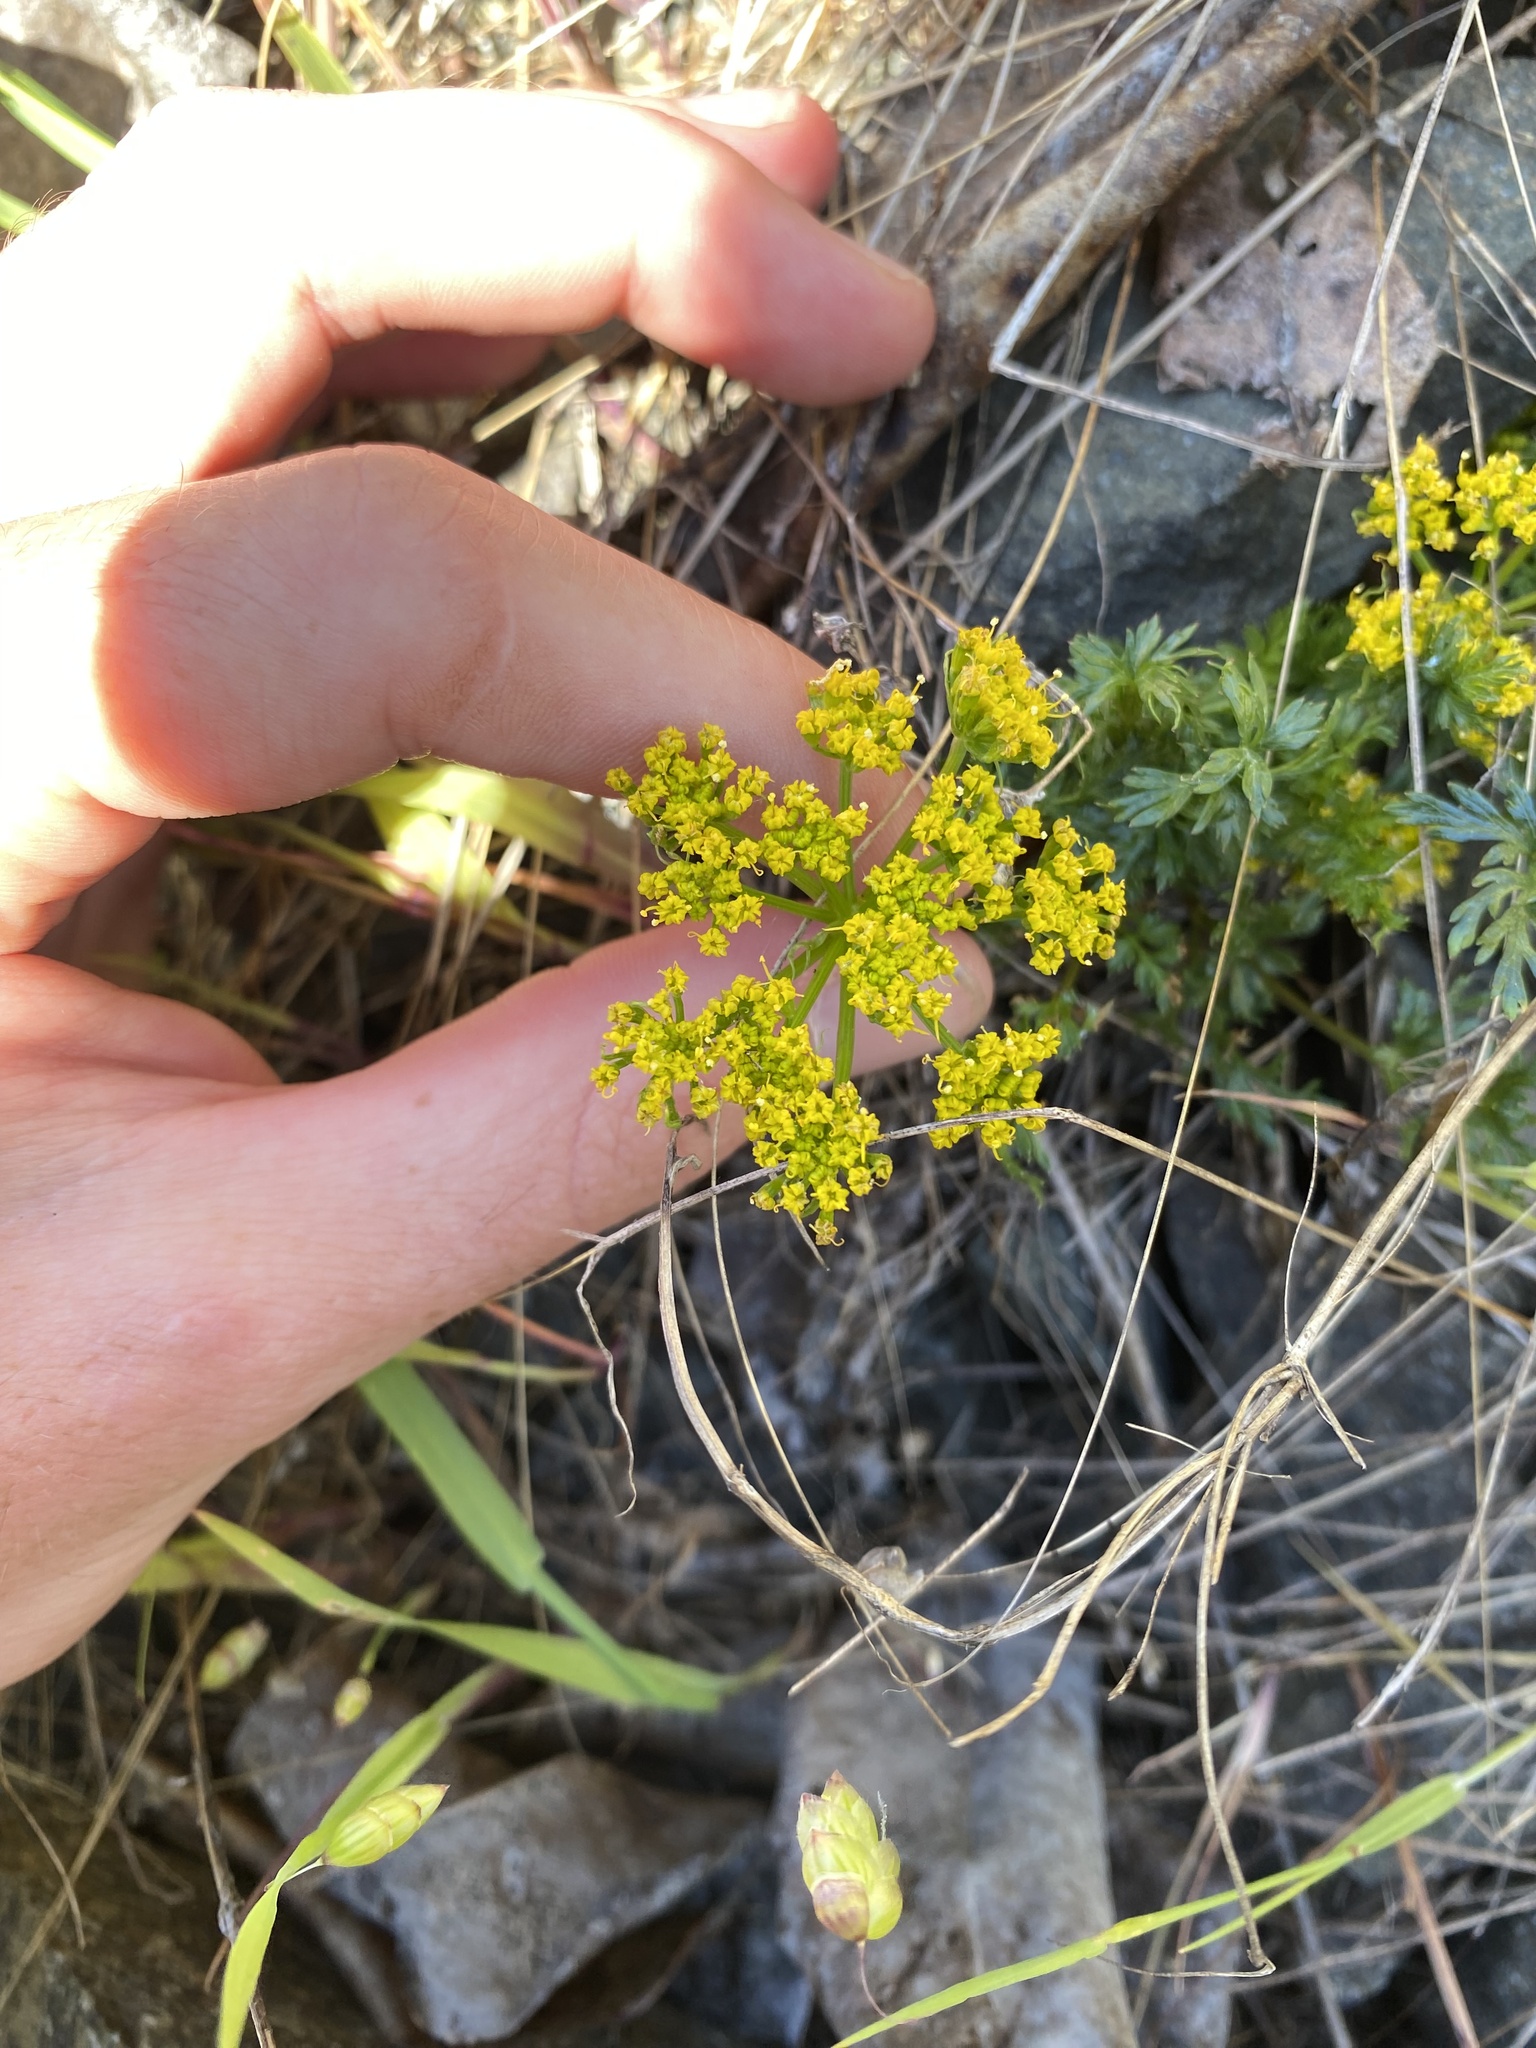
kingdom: Plantae
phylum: Tracheophyta
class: Magnoliopsida
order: Apiales
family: Apiaceae
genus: Lomatium
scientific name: Lomatium hallii
